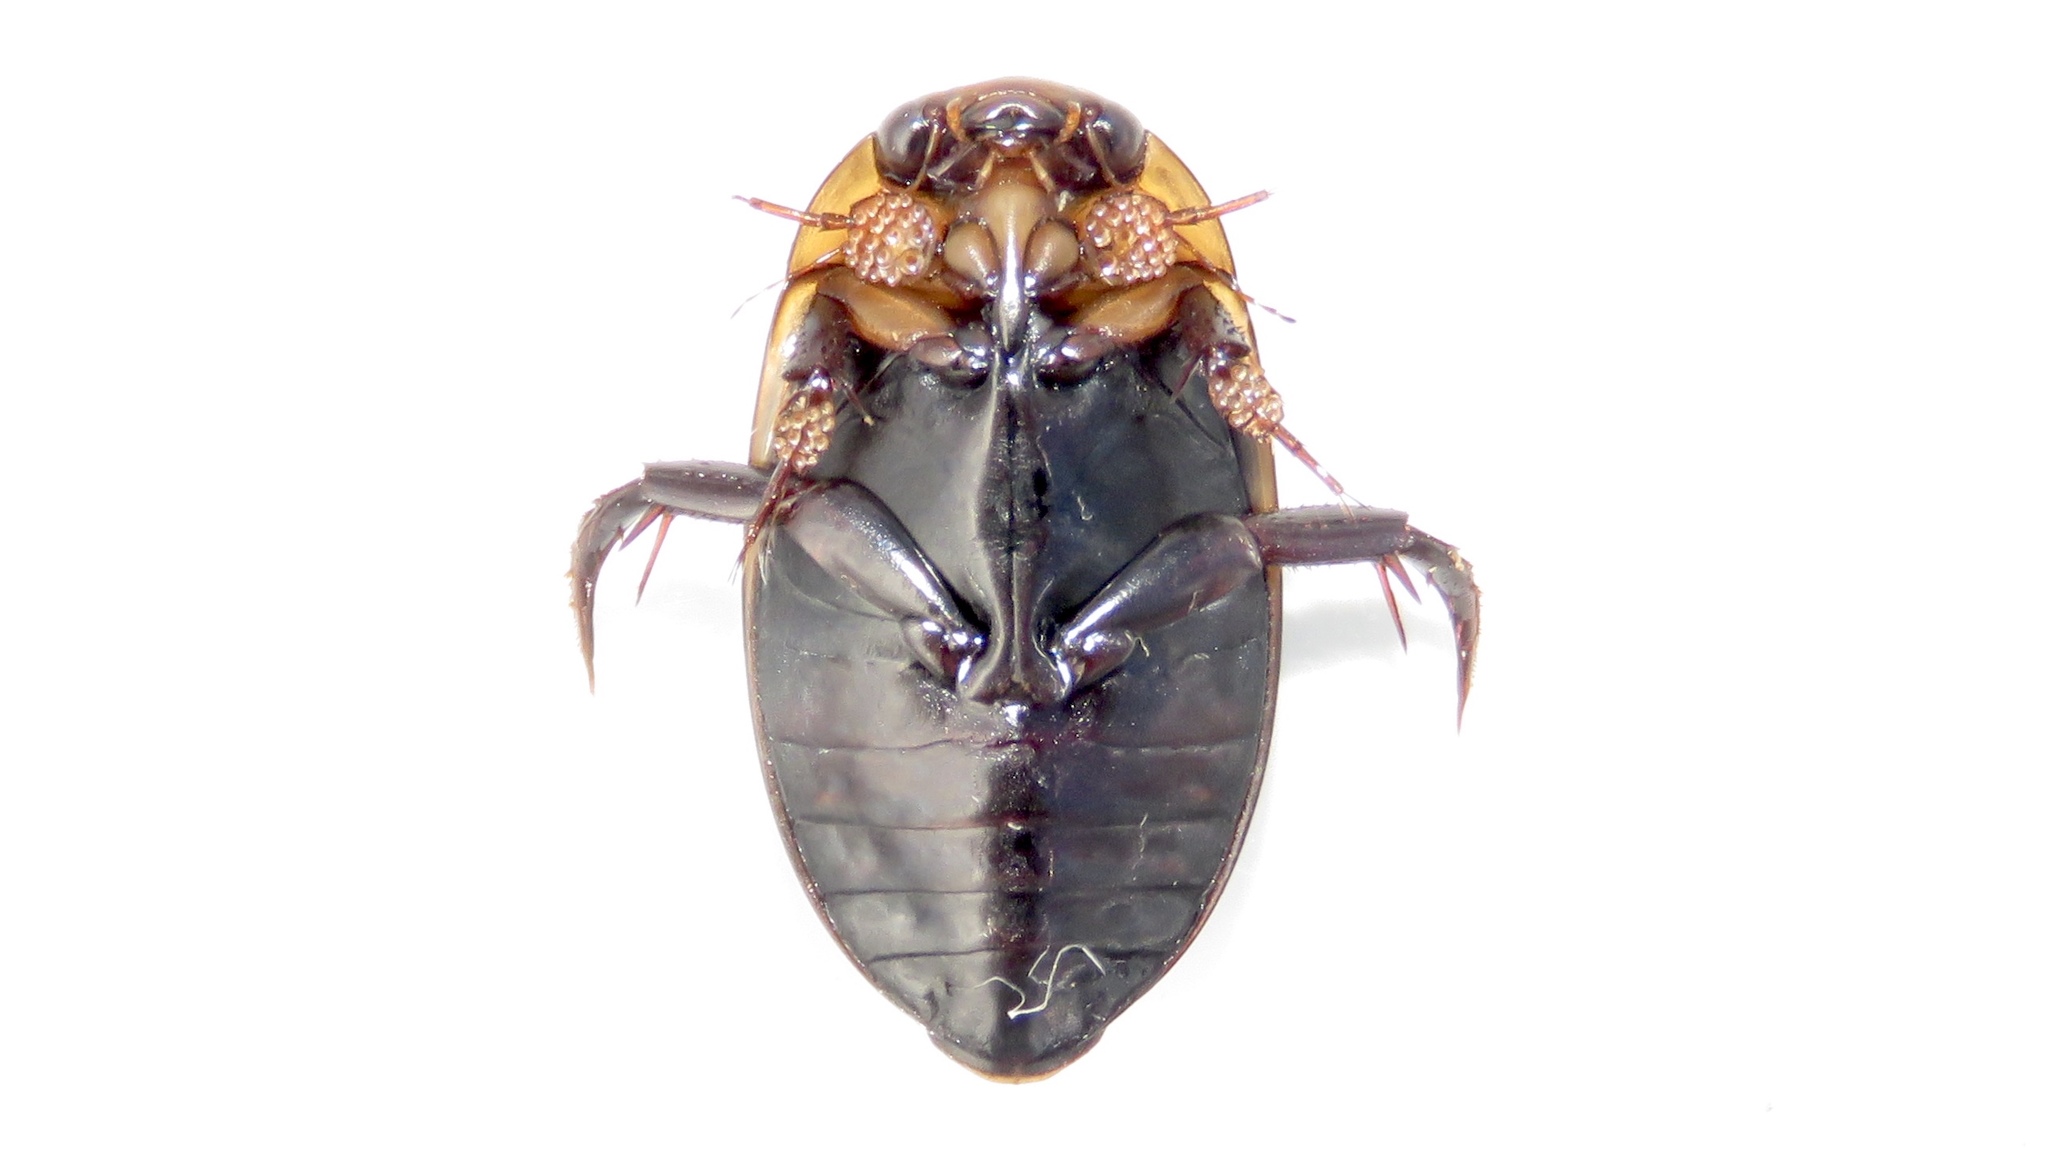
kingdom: Animalia
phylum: Arthropoda
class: Insecta
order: Coleoptera
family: Dytiscidae
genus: Hydaticus
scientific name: Hydaticus aruspex
